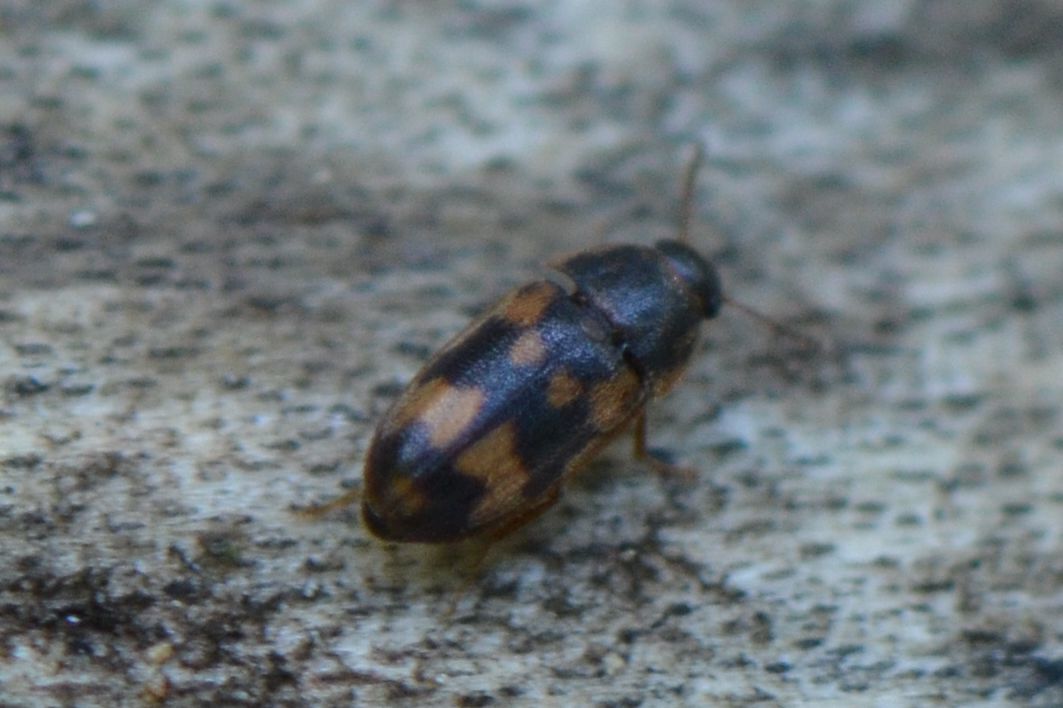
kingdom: Animalia
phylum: Arthropoda
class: Insecta
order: Coleoptera
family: Mycetophagidae
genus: Litargus
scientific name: Litargus connexus
